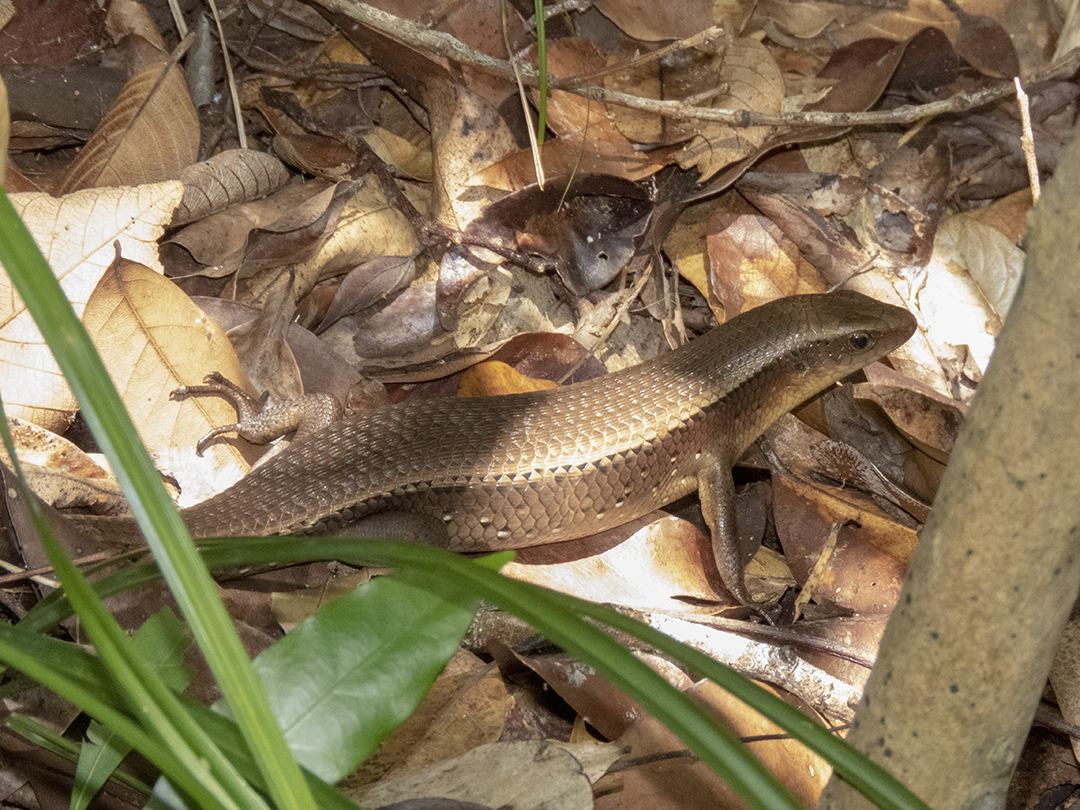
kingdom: Animalia
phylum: Chordata
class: Squamata
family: Scincidae
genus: Eutropis
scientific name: Eutropis multifasciata
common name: Common mabuya
